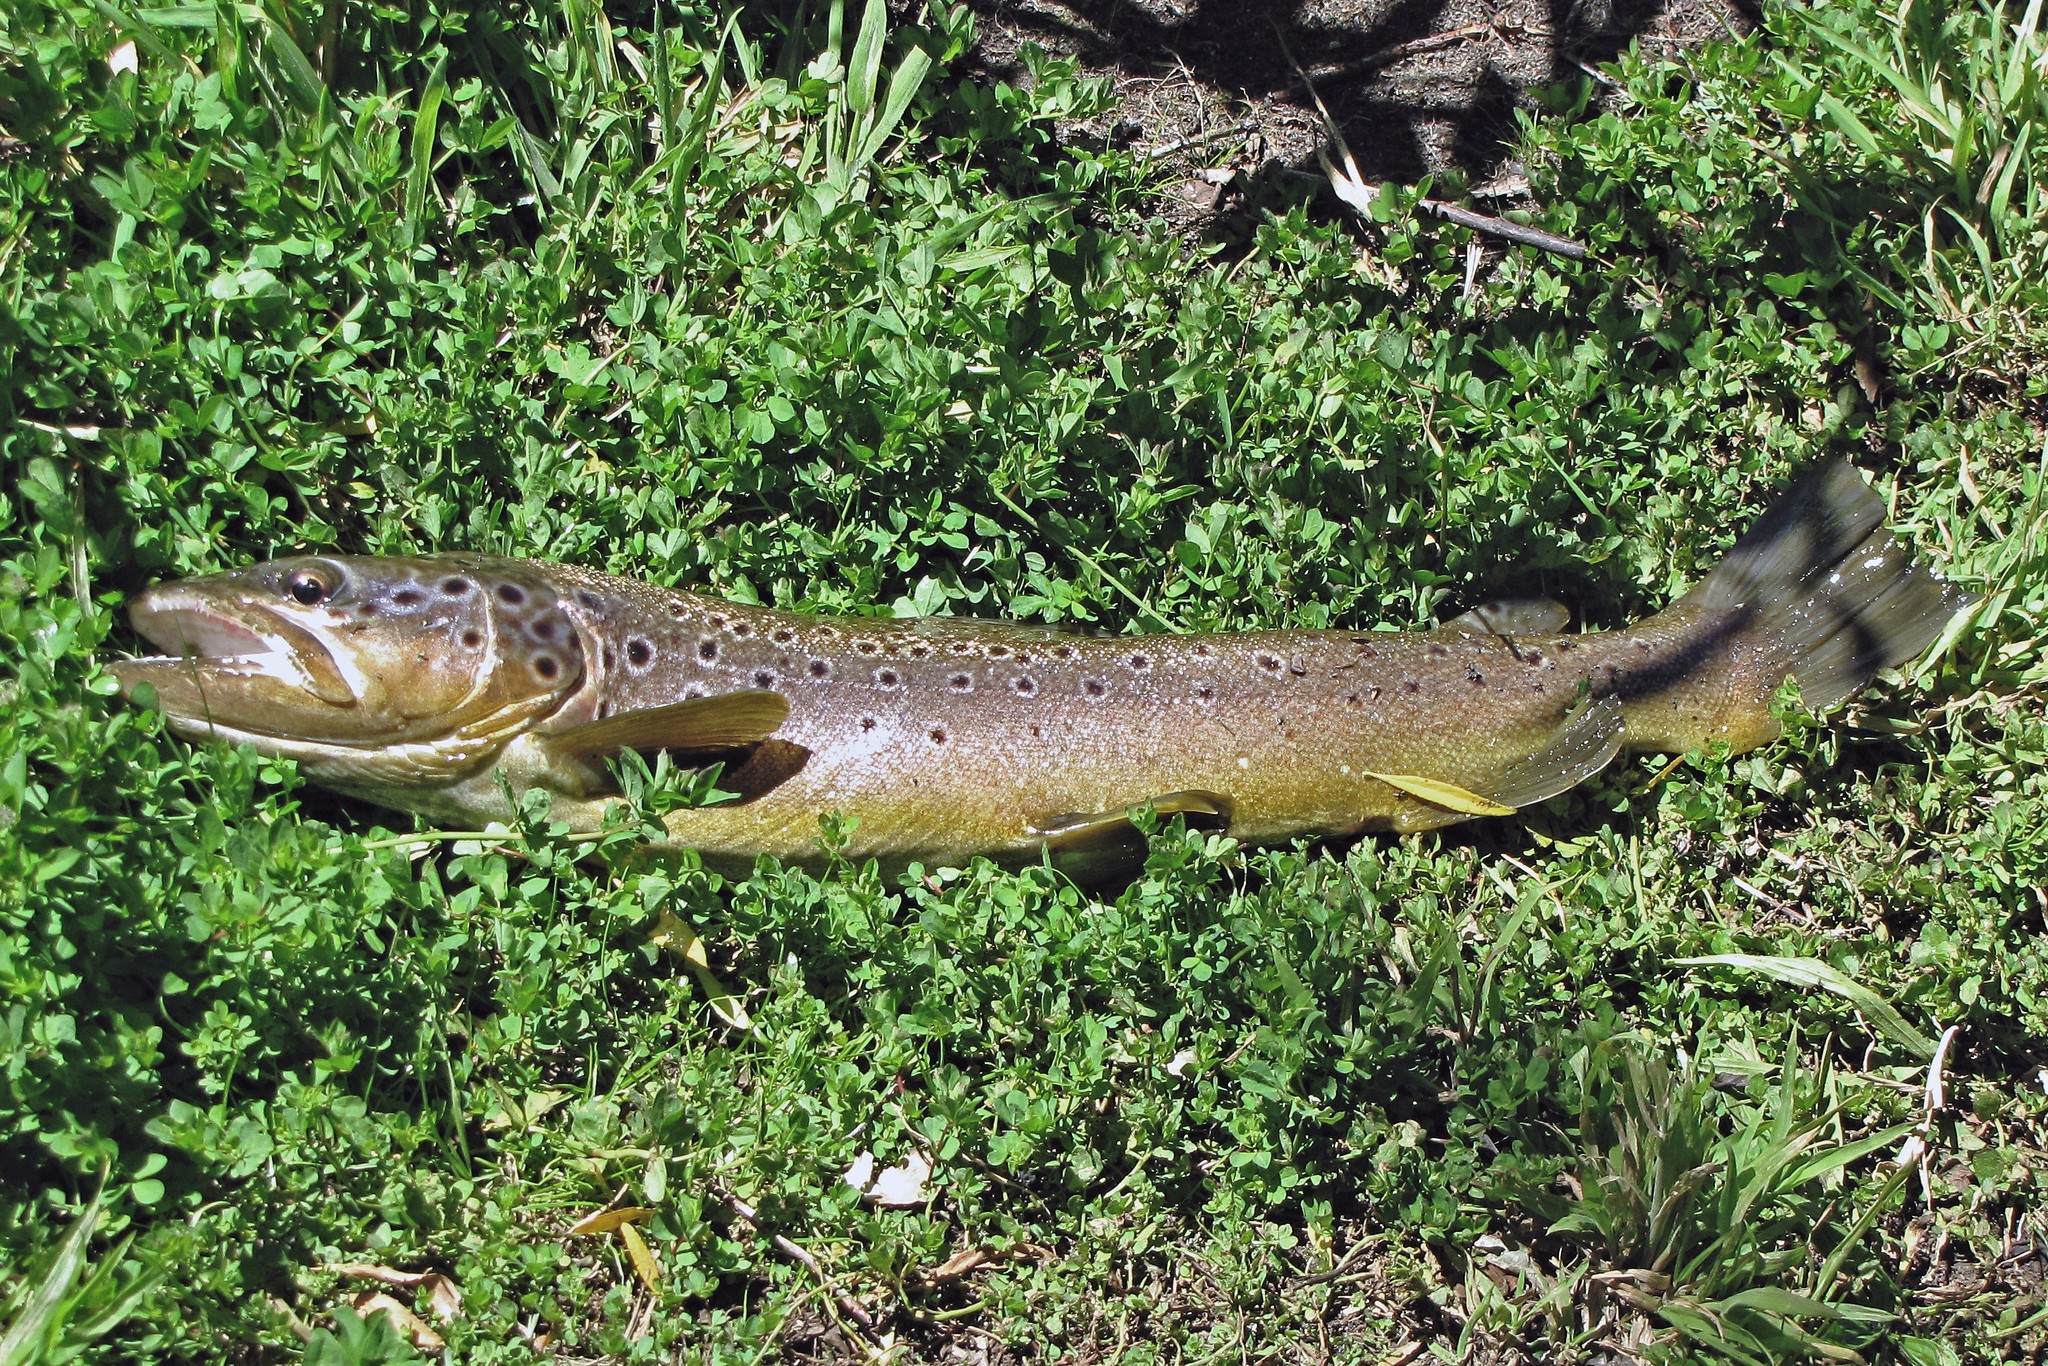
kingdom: Animalia
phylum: Chordata
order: Salmoniformes
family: Salmonidae
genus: Salmo
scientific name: Salmo trutta
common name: Brown trout
